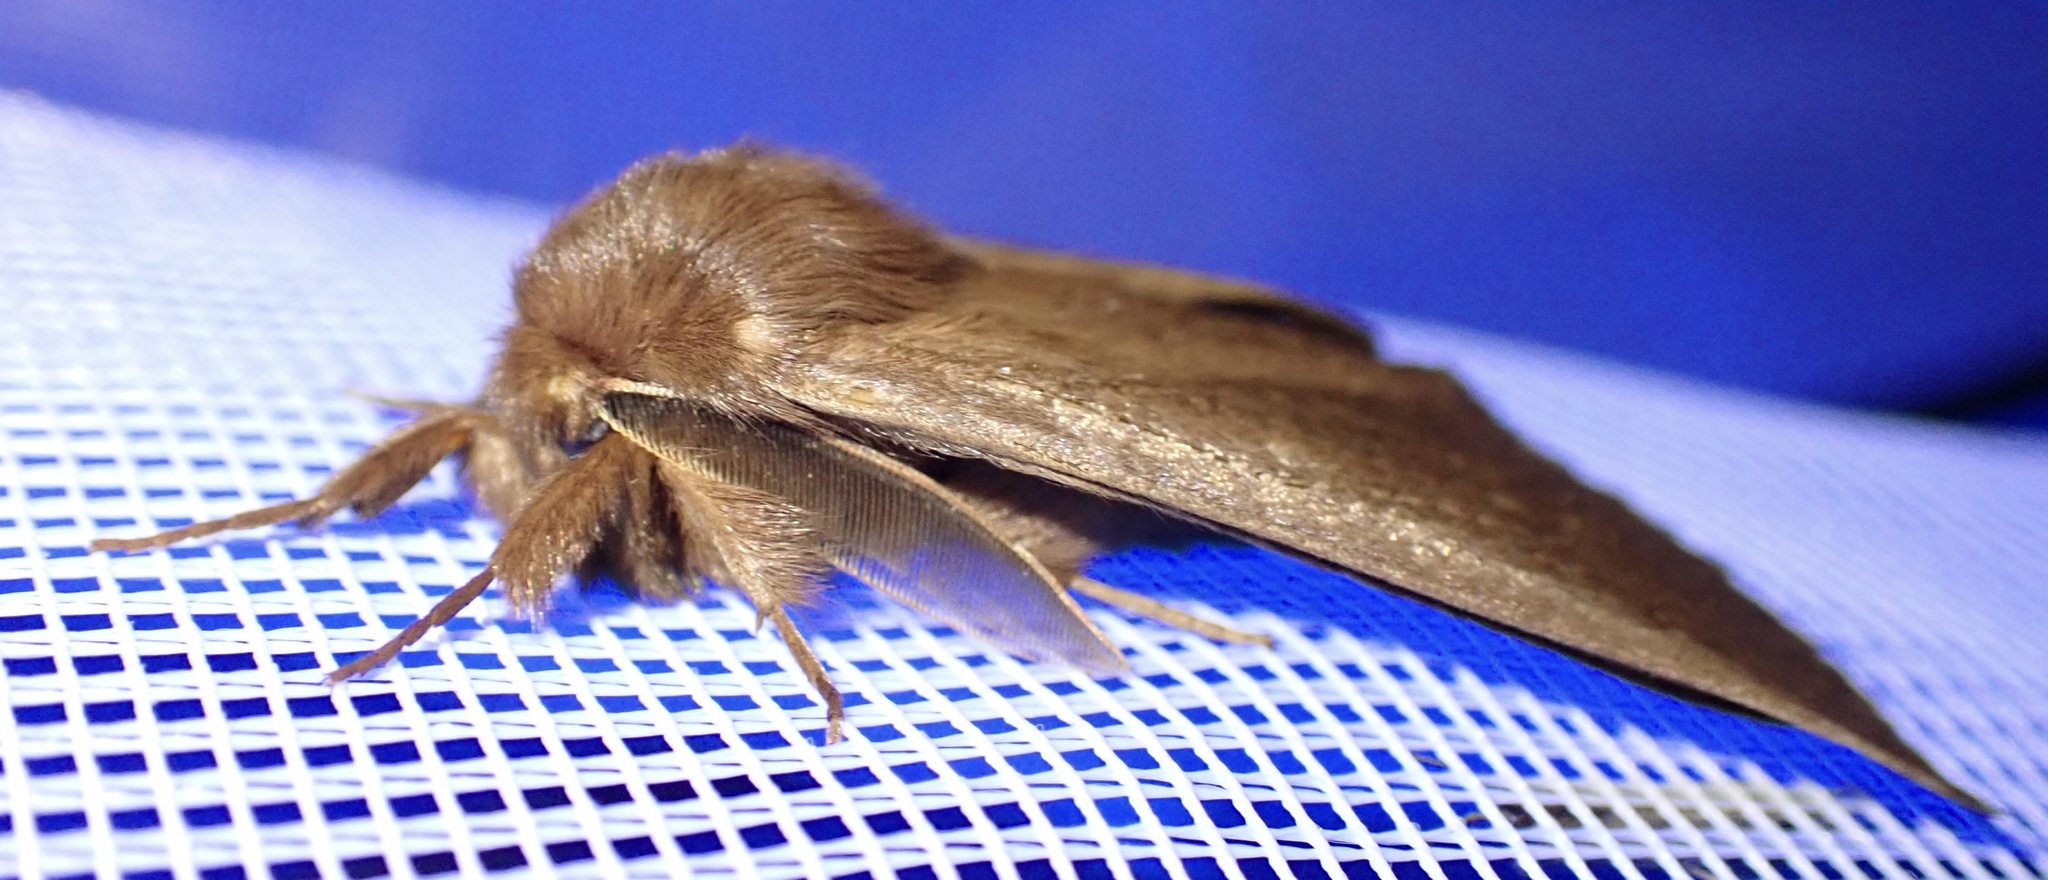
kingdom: Animalia
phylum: Arthropoda
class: Insecta
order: Lepidoptera
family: Eupterotidae
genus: Phyllalia
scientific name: Phyllalia patens
